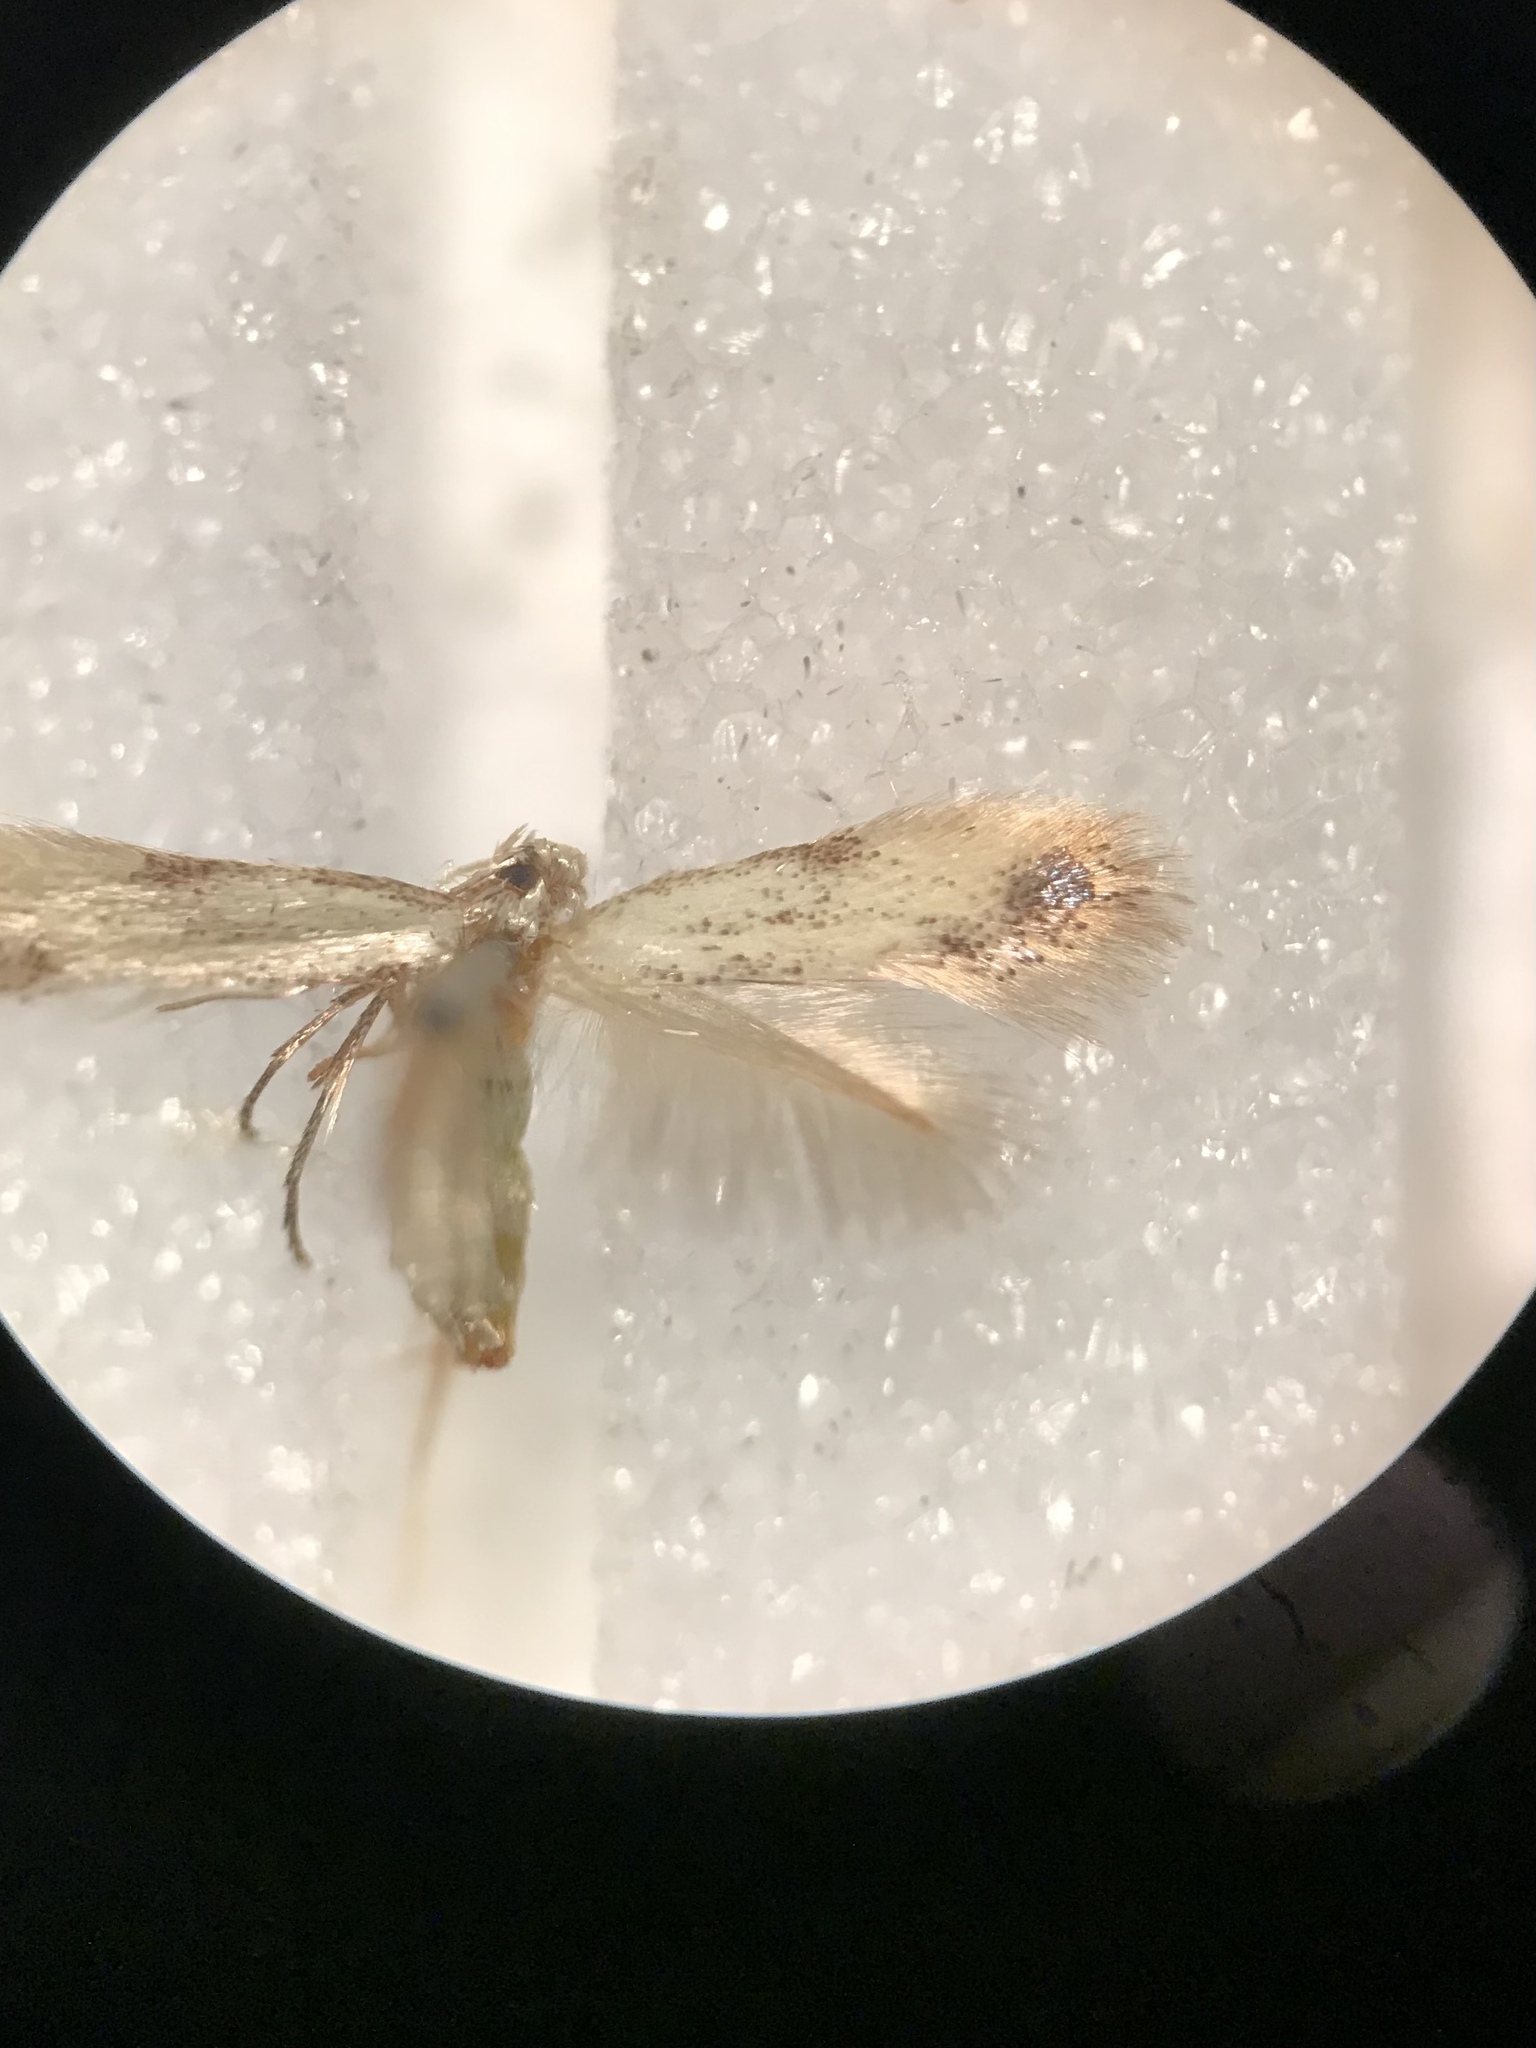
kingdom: Animalia
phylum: Arthropoda
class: Insecta
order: Lepidoptera
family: Tischeriidae
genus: Coptotriche
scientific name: Coptotriche purinosella
